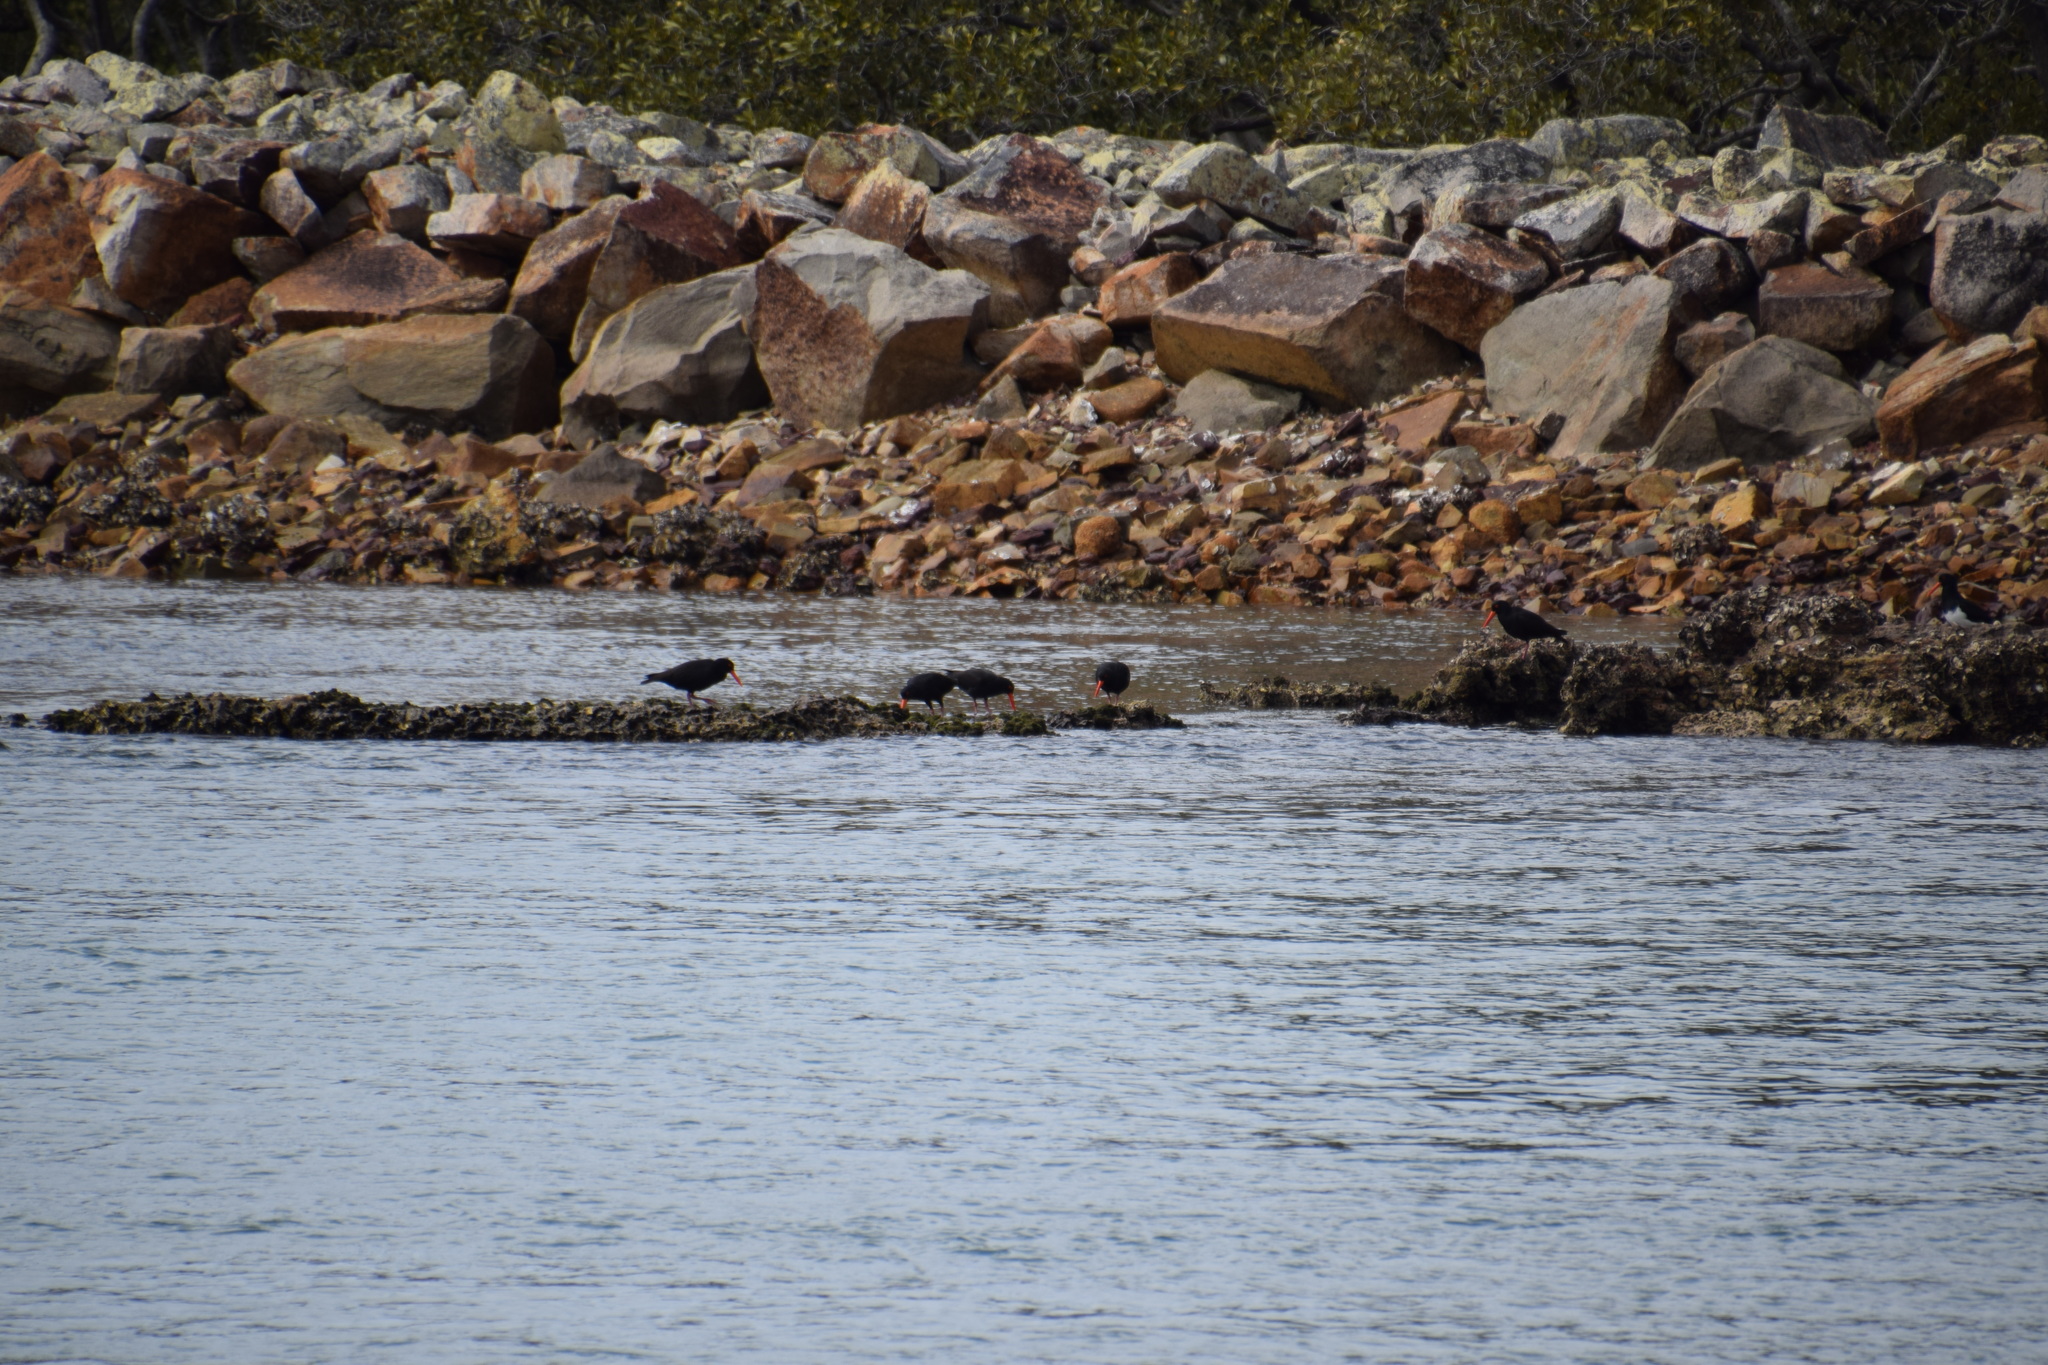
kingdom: Animalia
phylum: Chordata
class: Aves
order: Charadriiformes
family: Haematopodidae
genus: Haematopus
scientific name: Haematopus fuliginosus
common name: Sooty oystercatcher
